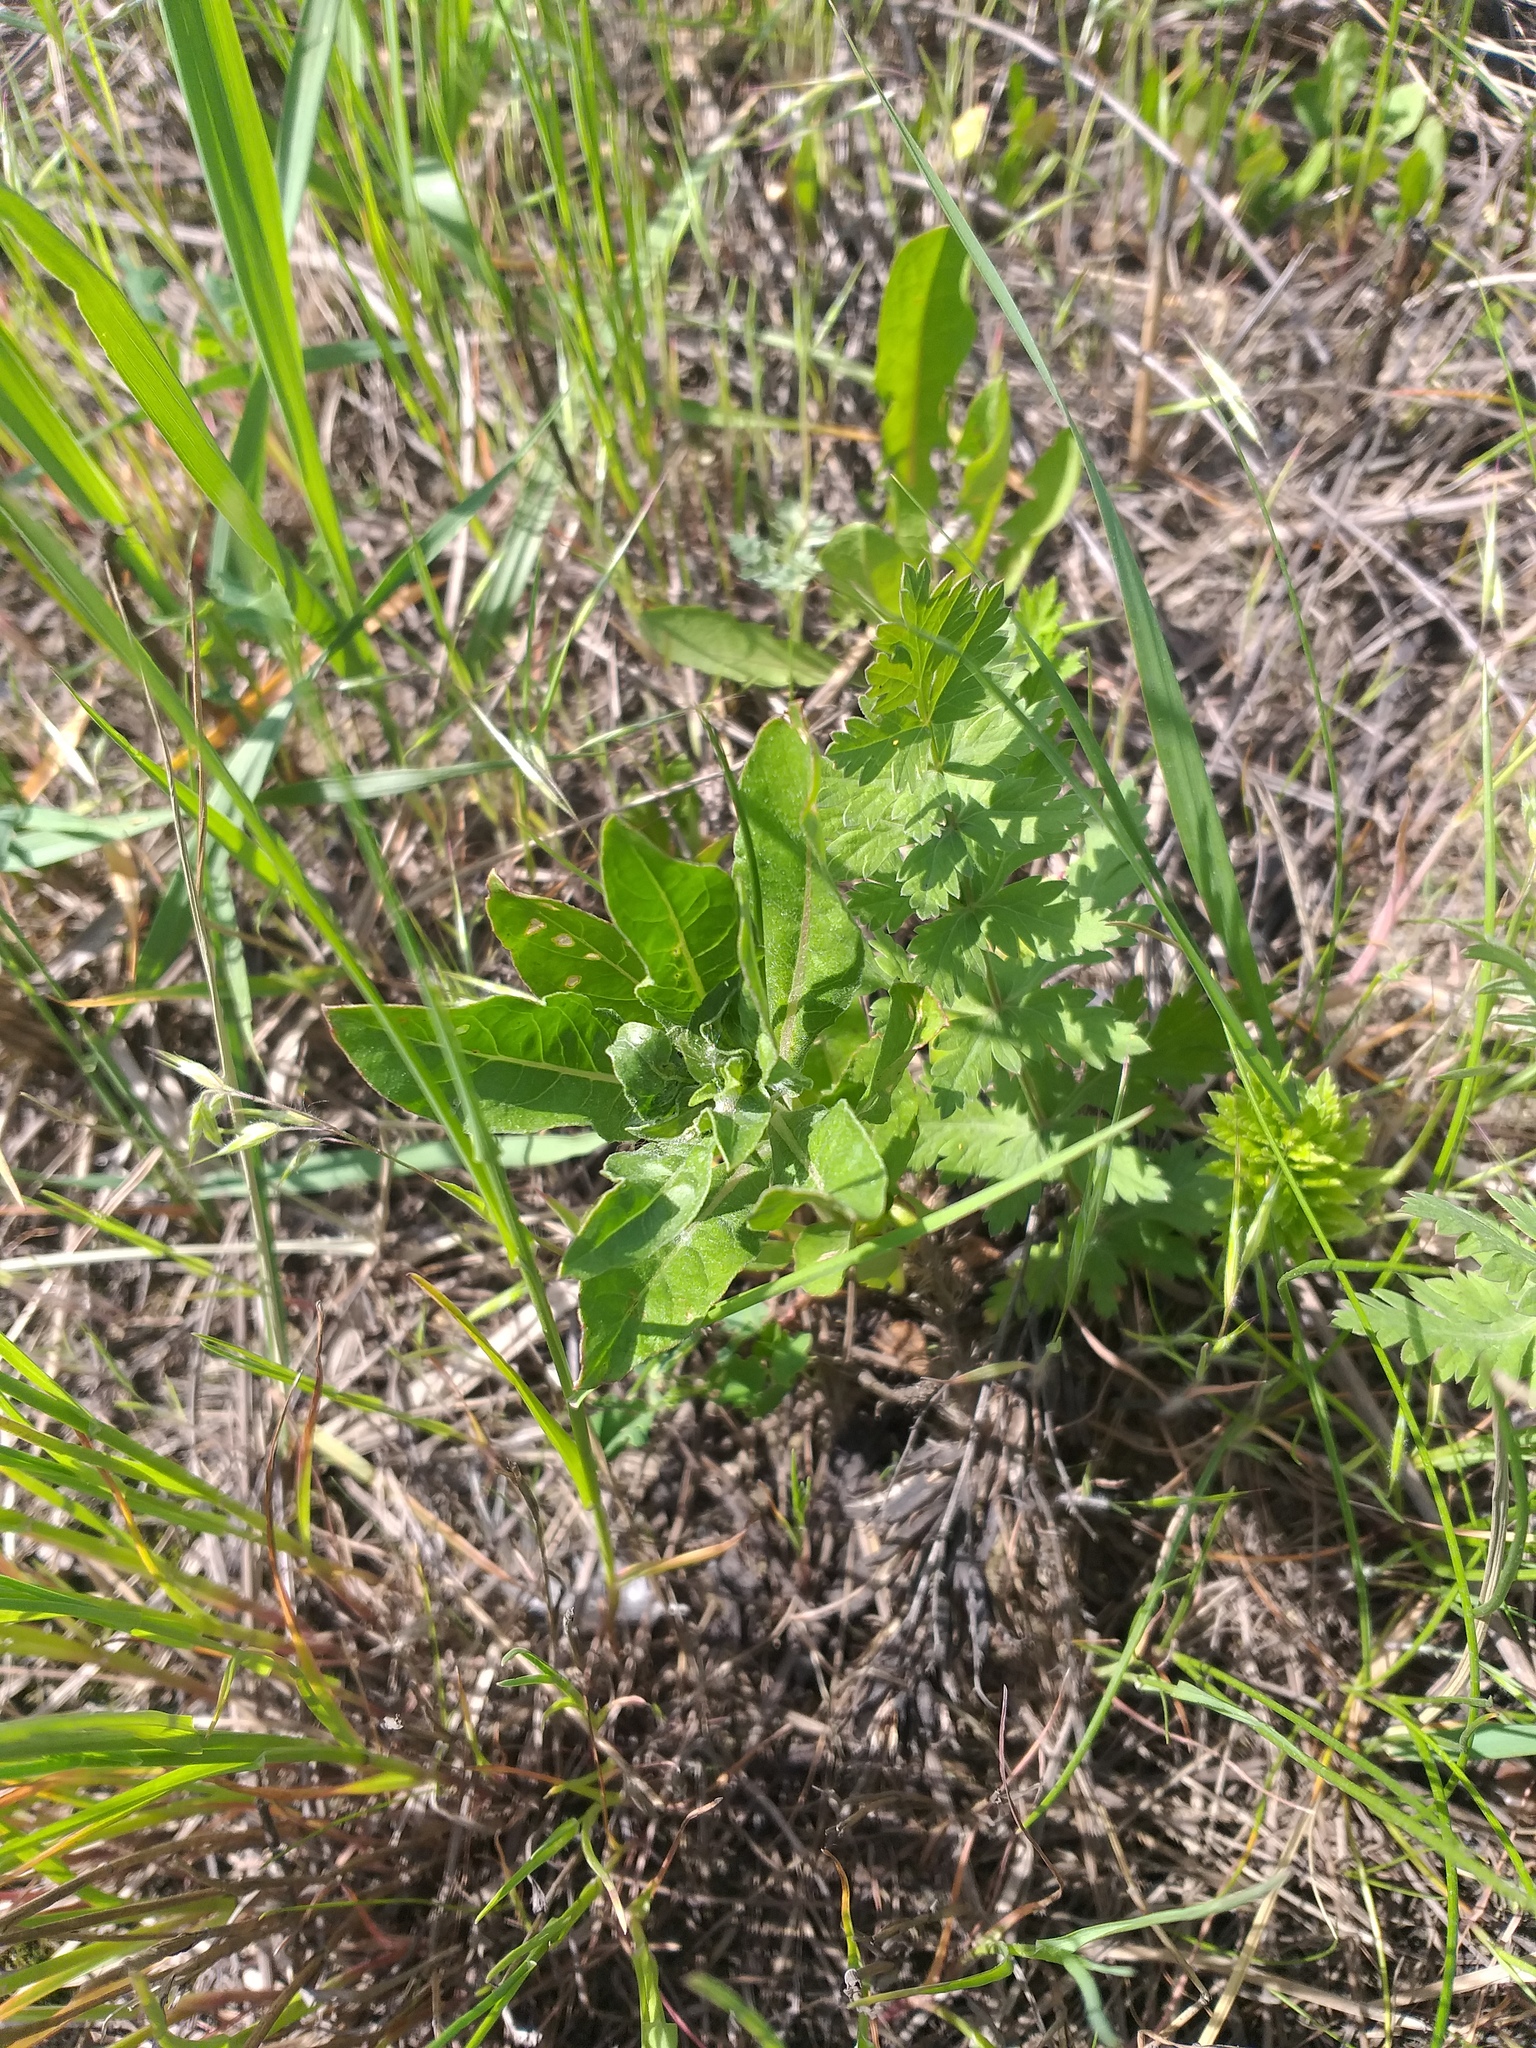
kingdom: Plantae
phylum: Tracheophyta
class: Magnoliopsida
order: Myrtales
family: Onagraceae
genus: Oenothera
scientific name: Oenothera
